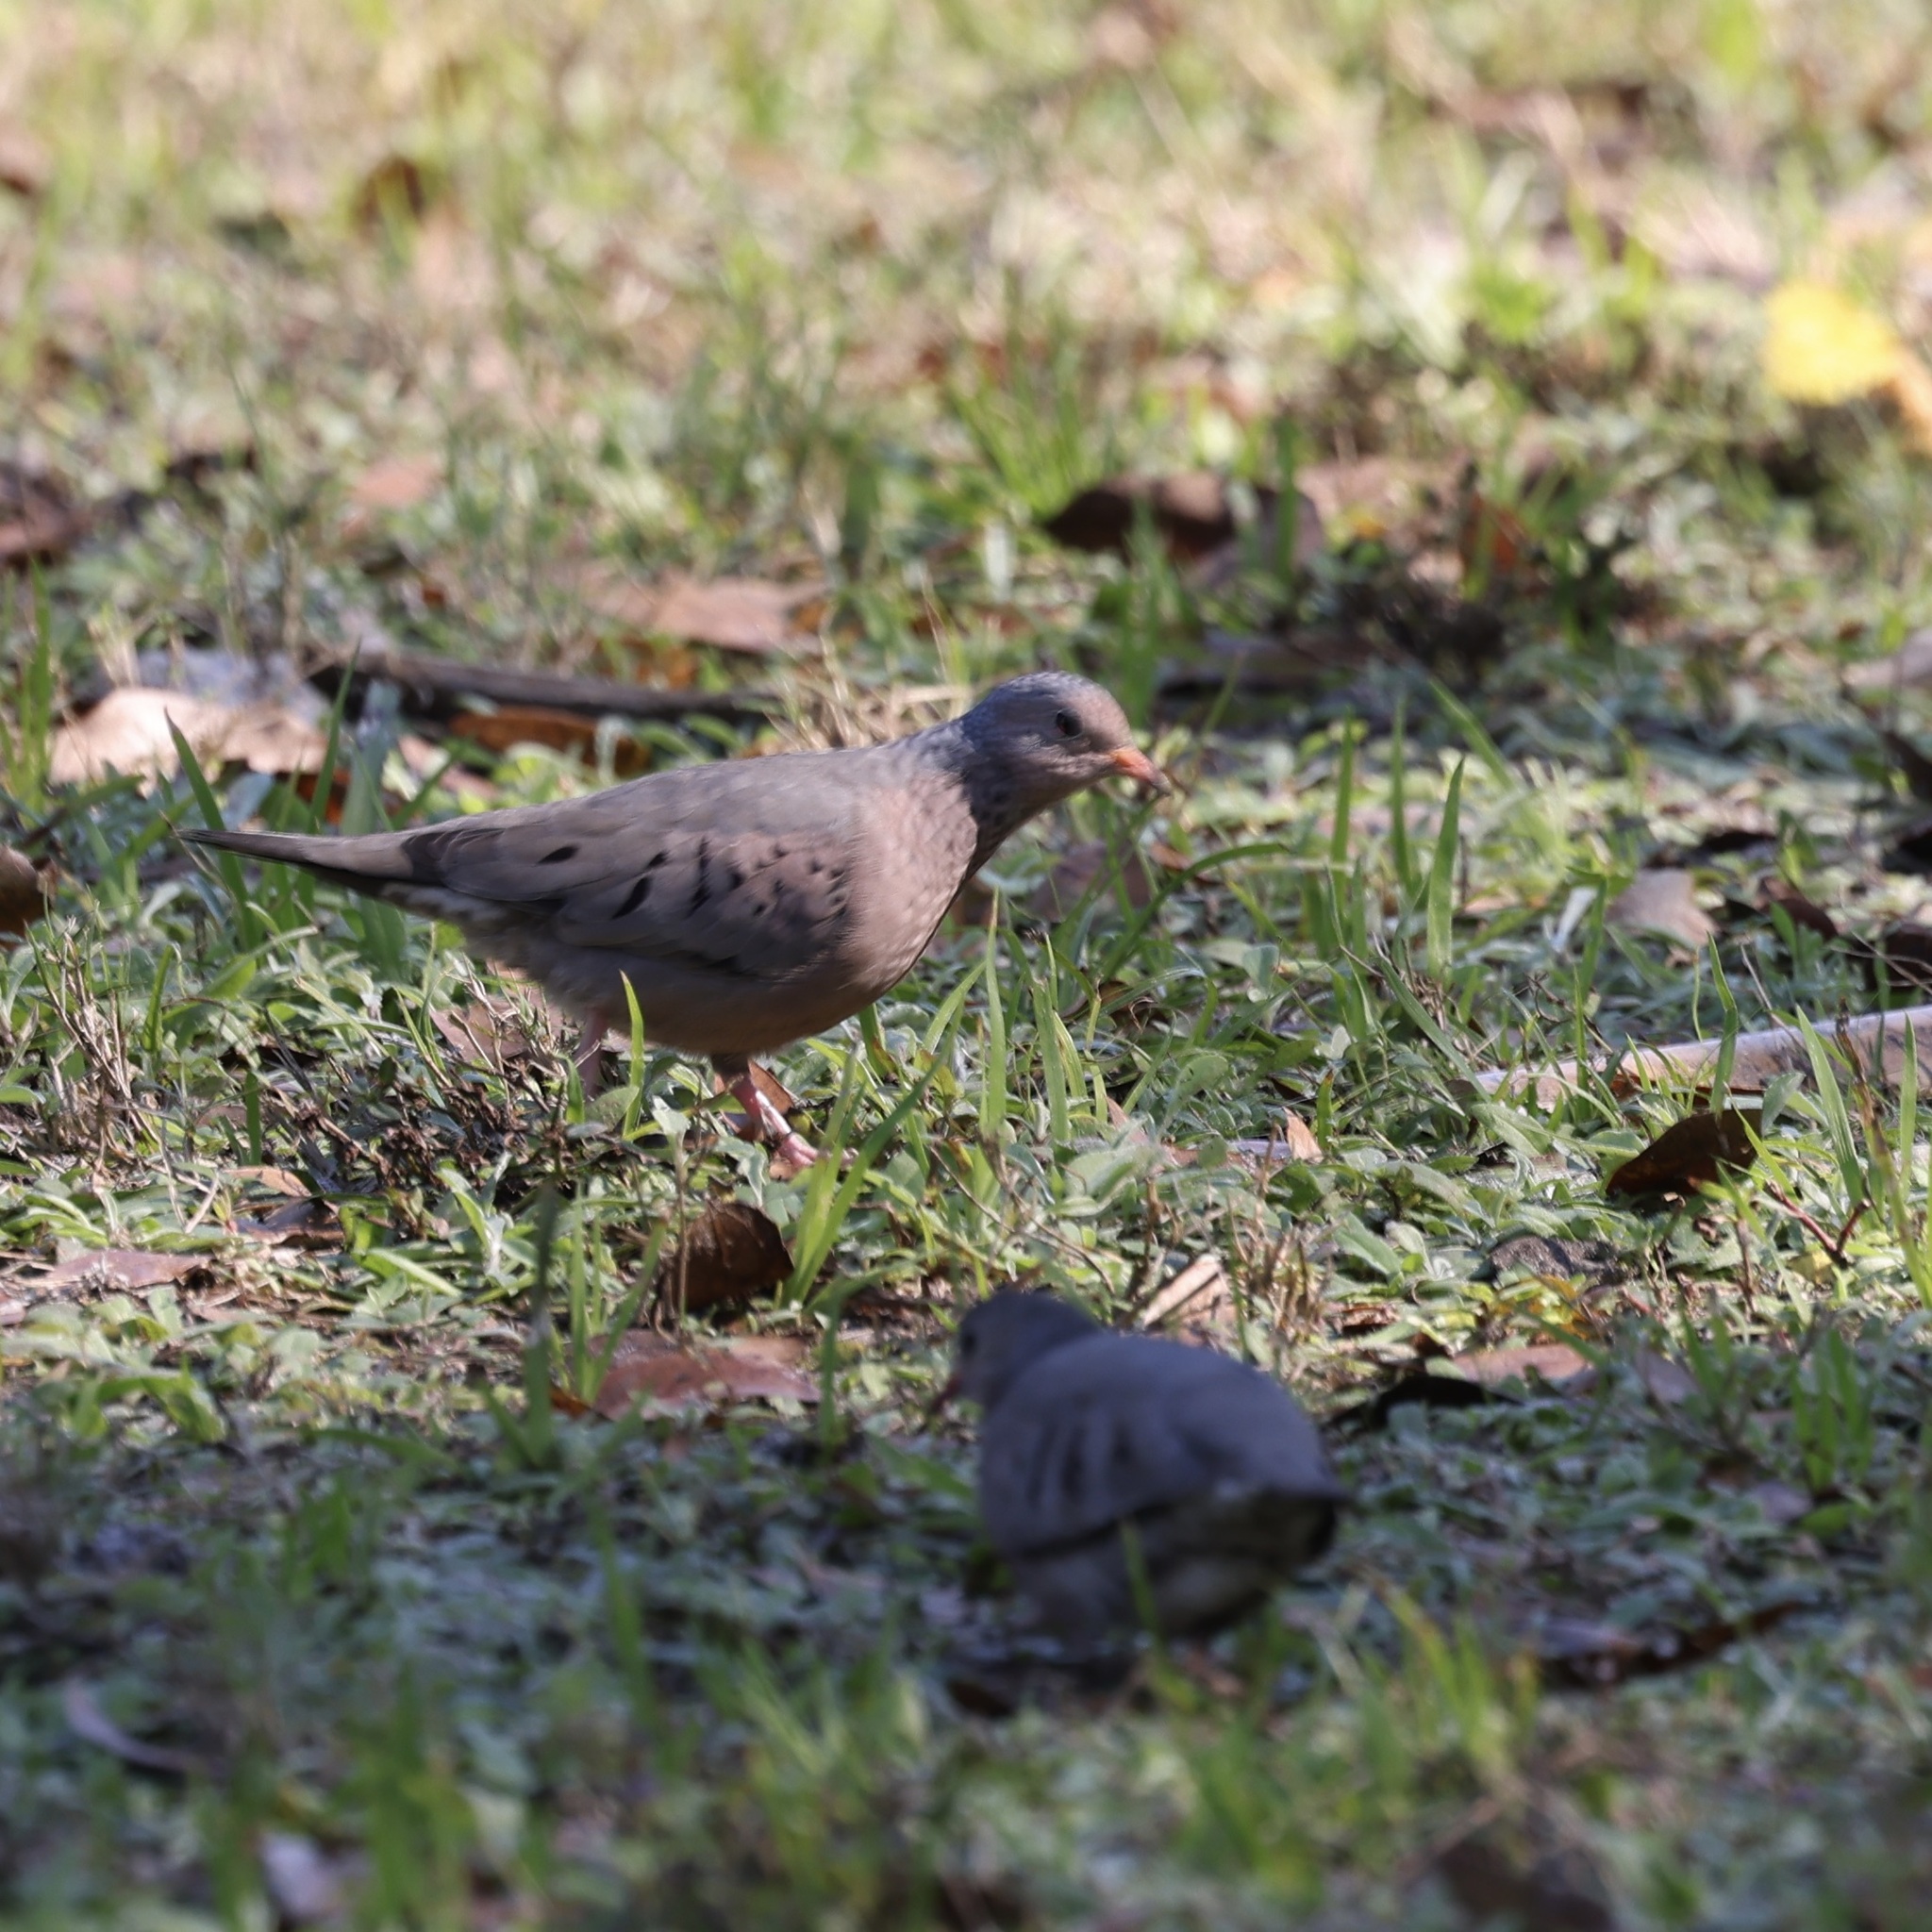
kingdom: Animalia
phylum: Chordata
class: Aves
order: Columbiformes
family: Columbidae
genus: Columbina
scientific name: Columbina passerina
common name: Common ground-dove
